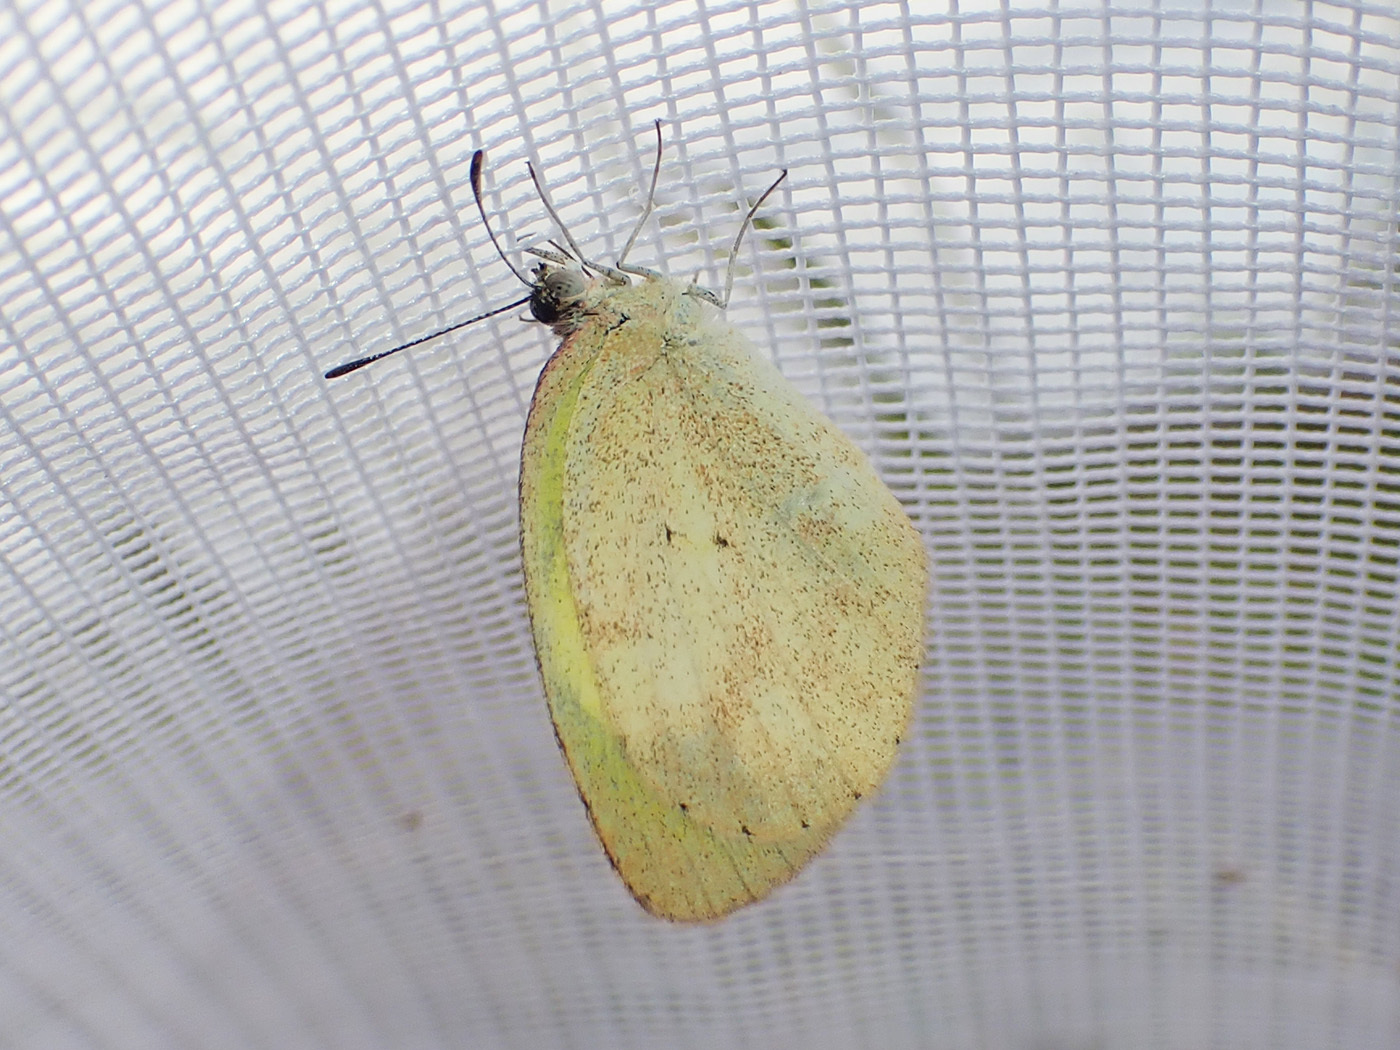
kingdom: Animalia
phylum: Arthropoda
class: Insecta
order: Lepidoptera
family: Pieridae
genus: Eurema
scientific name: Eurema daira
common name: Barred sulphur
